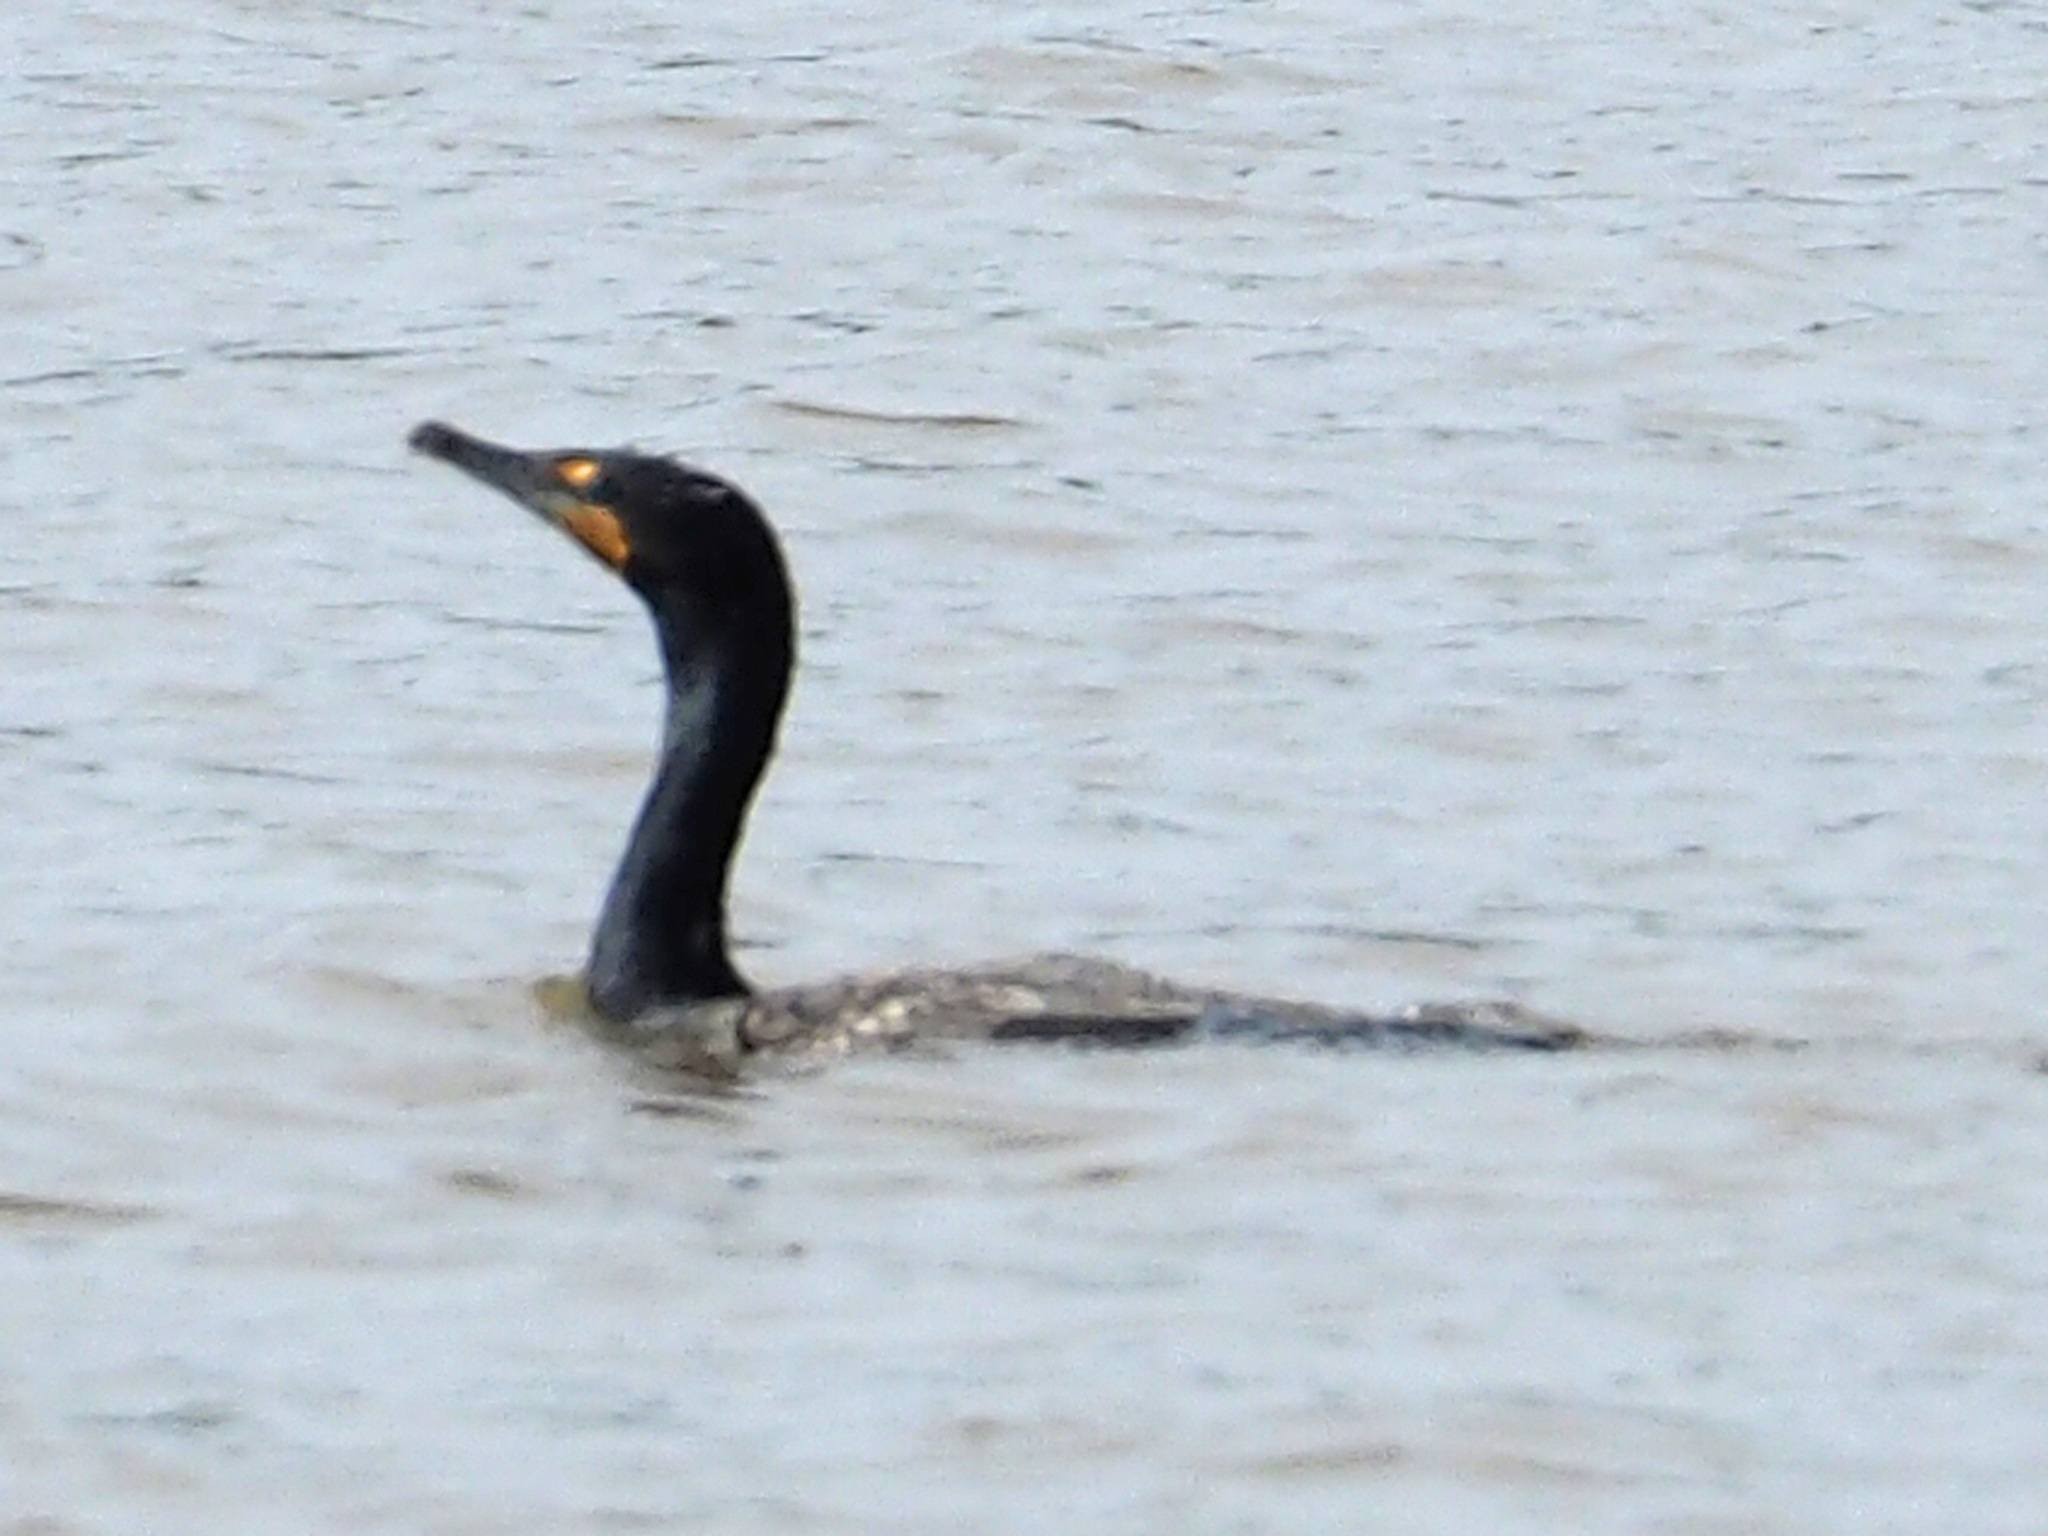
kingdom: Animalia
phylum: Chordata
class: Aves
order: Suliformes
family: Phalacrocoracidae
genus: Phalacrocorax
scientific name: Phalacrocorax auritus
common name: Double-crested cormorant
